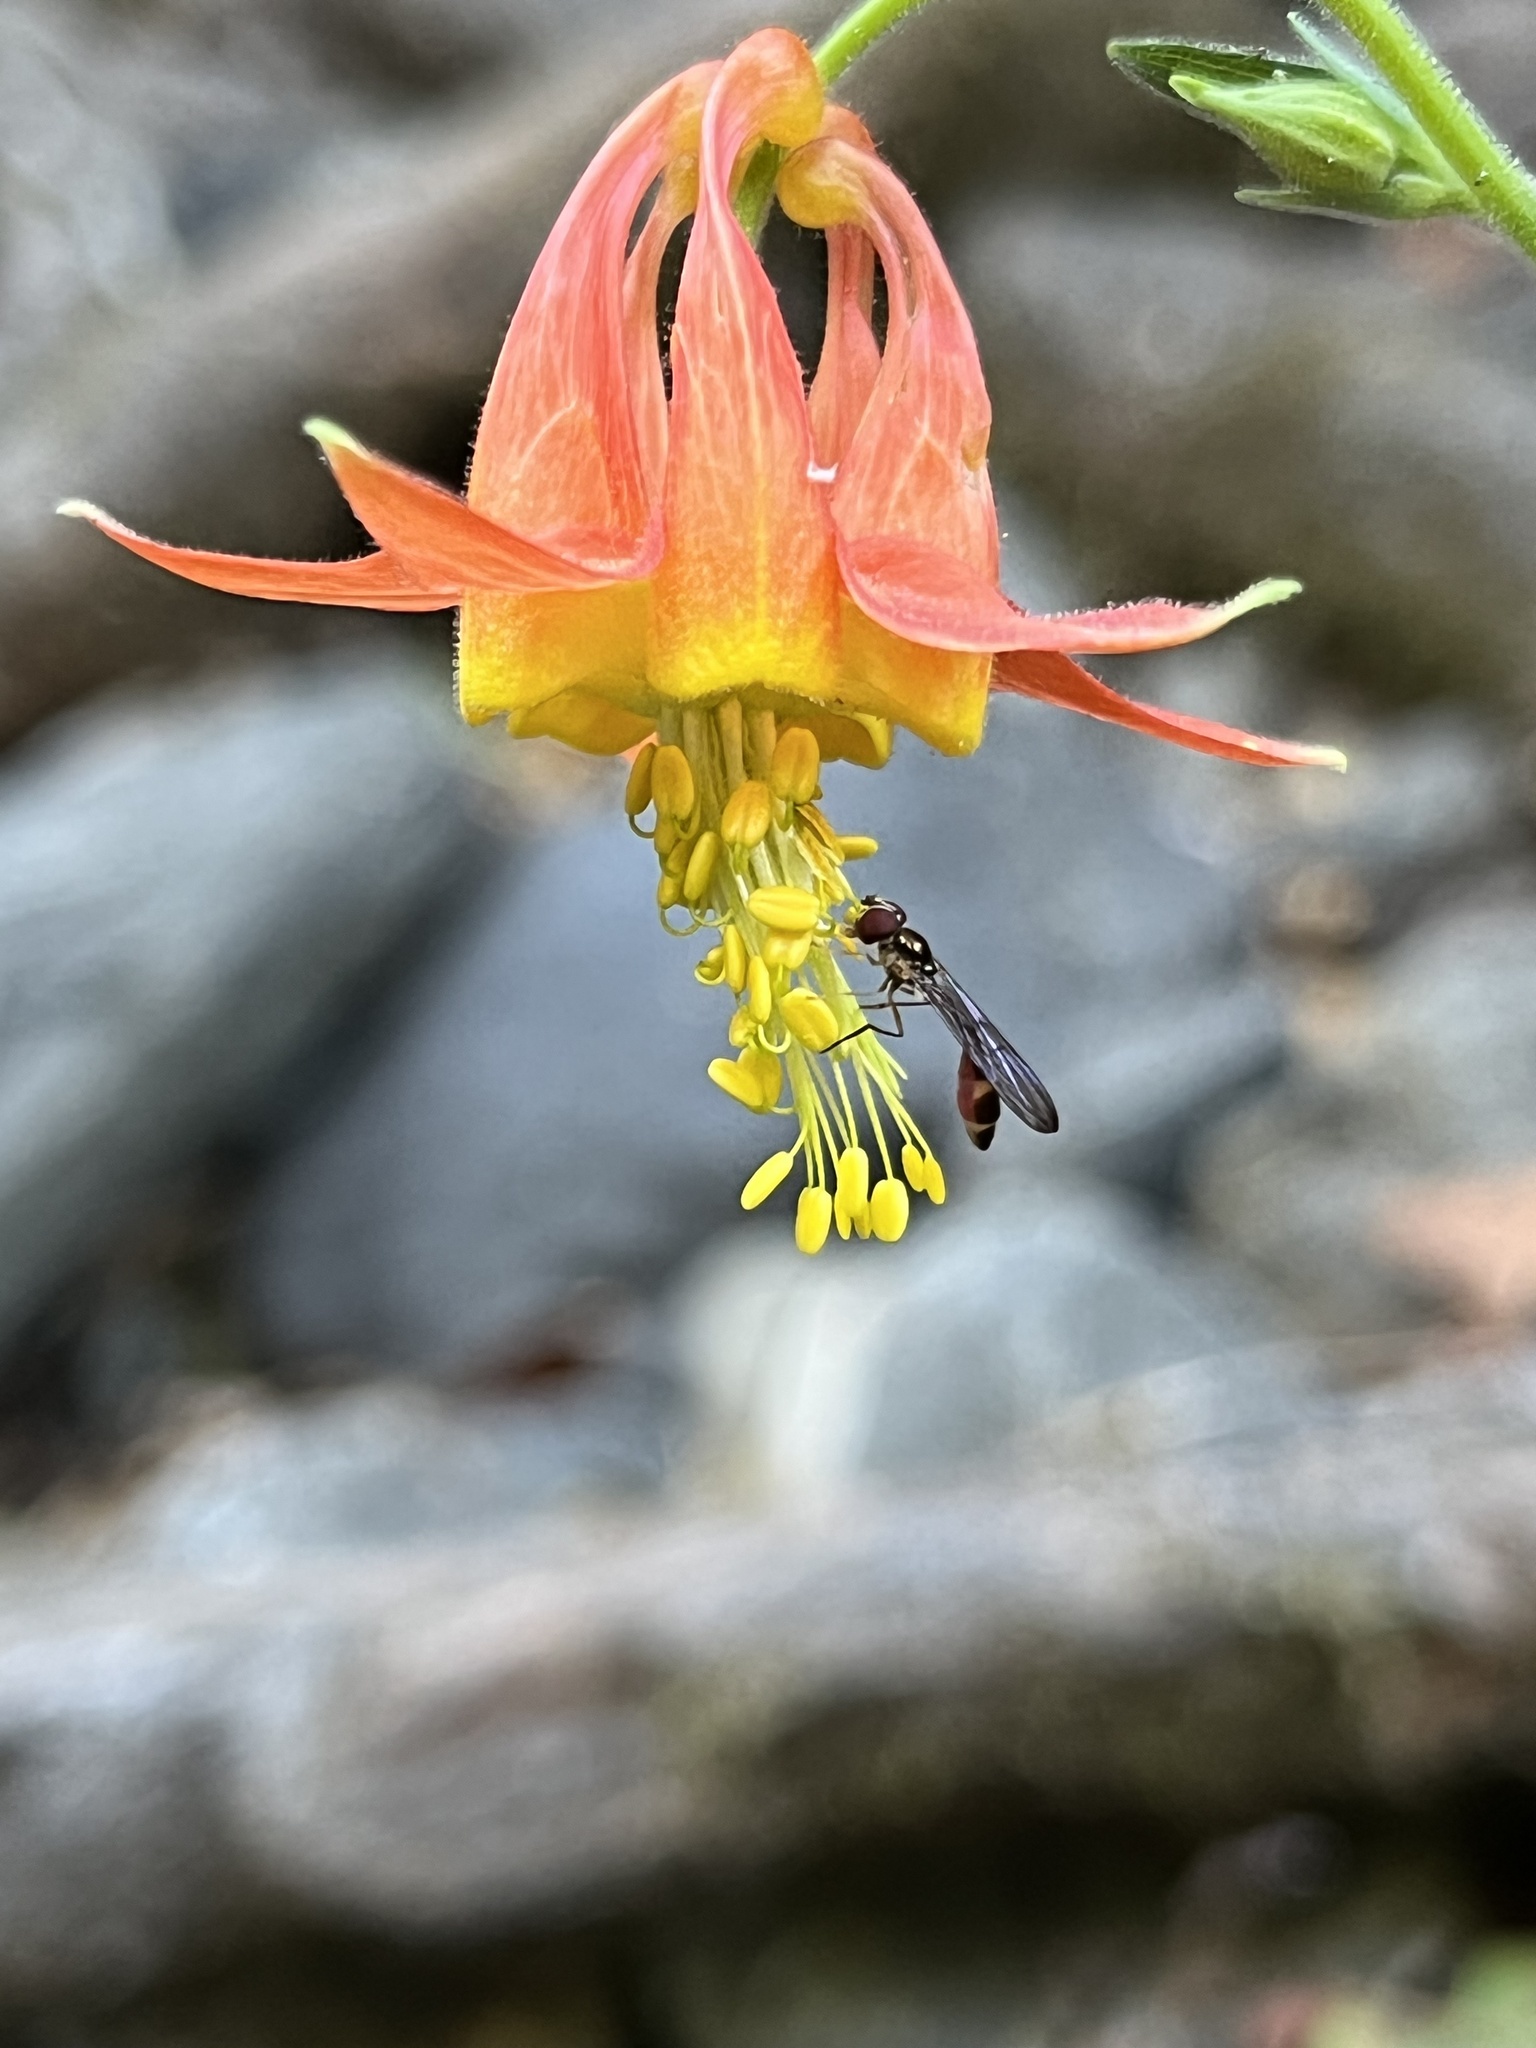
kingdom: Animalia
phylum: Arthropoda
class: Insecta
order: Diptera
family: Syrphidae
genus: Baccha
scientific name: Baccha cognata
